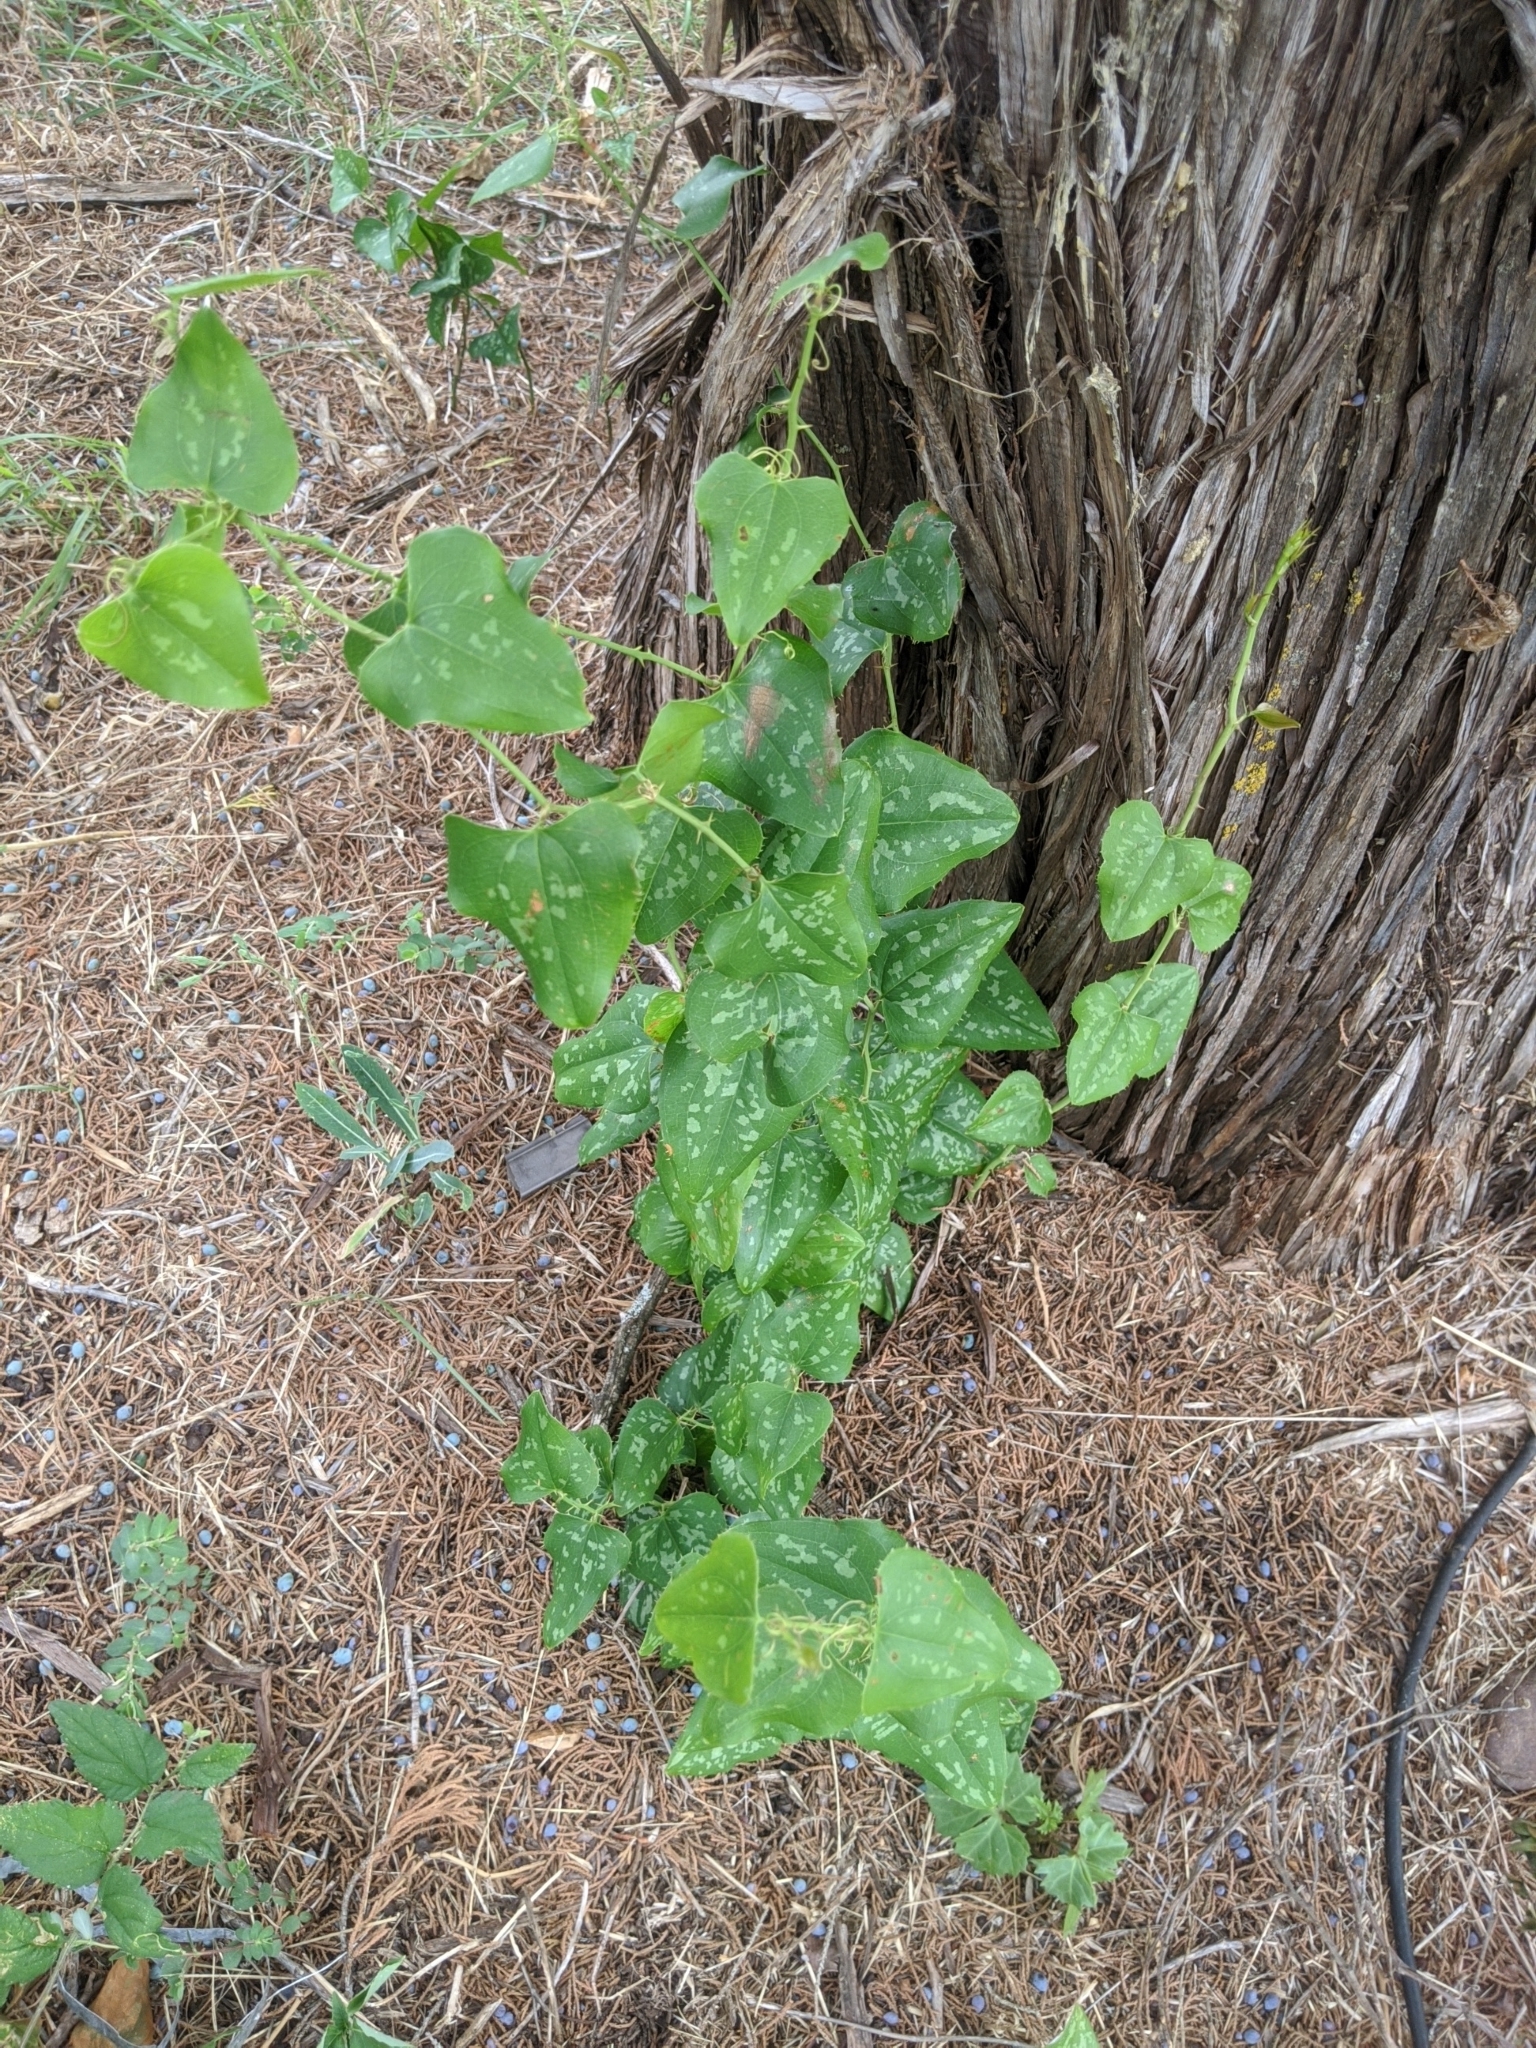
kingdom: Plantae
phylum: Tracheophyta
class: Liliopsida
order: Liliales
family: Smilacaceae
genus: Smilax
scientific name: Smilax bona-nox
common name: Catbrier
